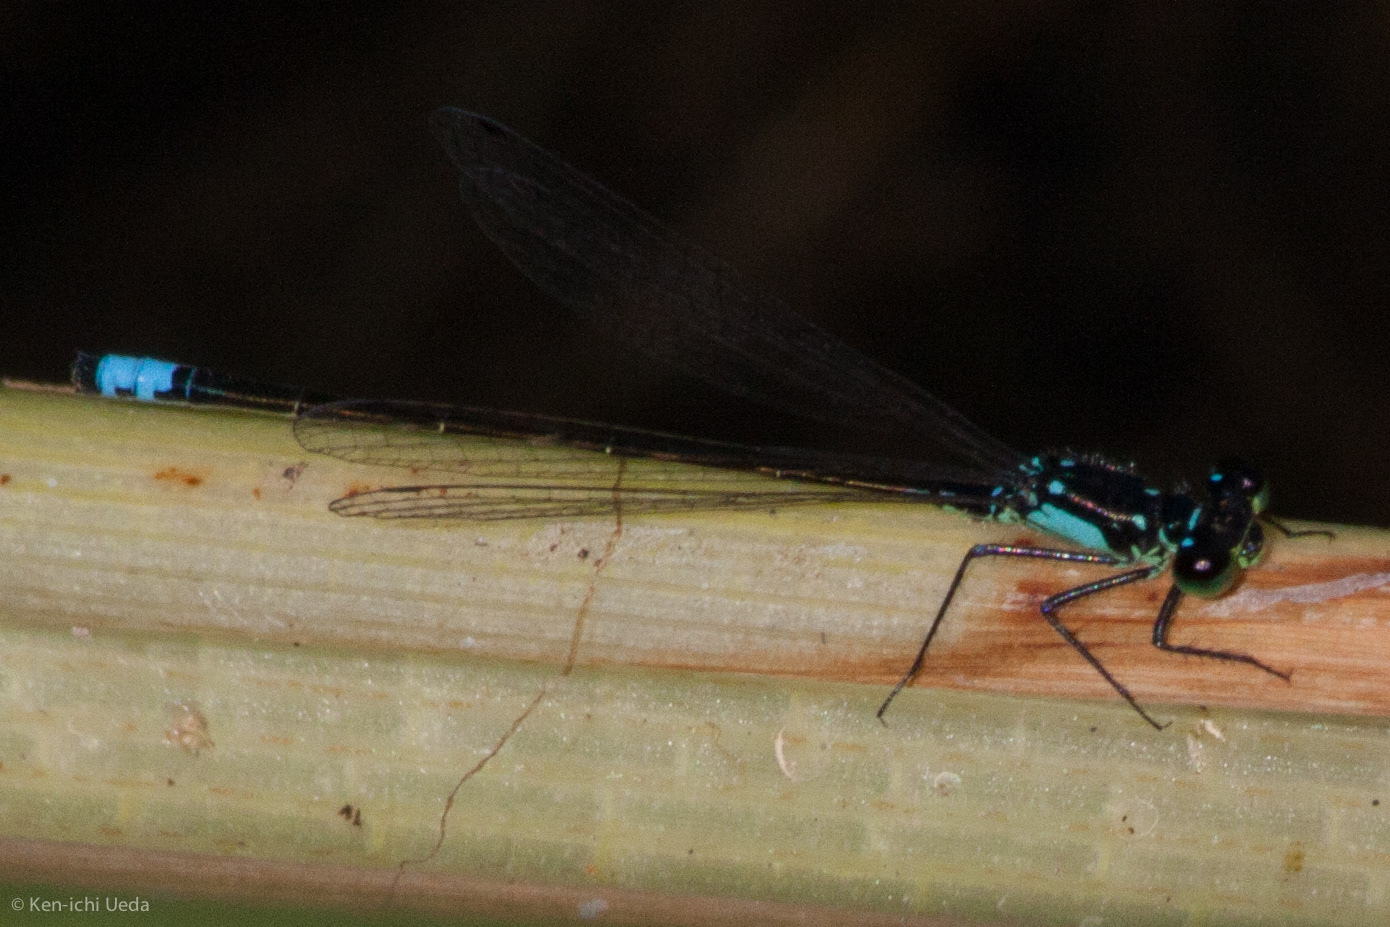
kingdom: Animalia
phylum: Arthropoda
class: Insecta
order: Odonata
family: Coenagrionidae
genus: Ischnura
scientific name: Ischnura cervula
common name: Pacific forktail
